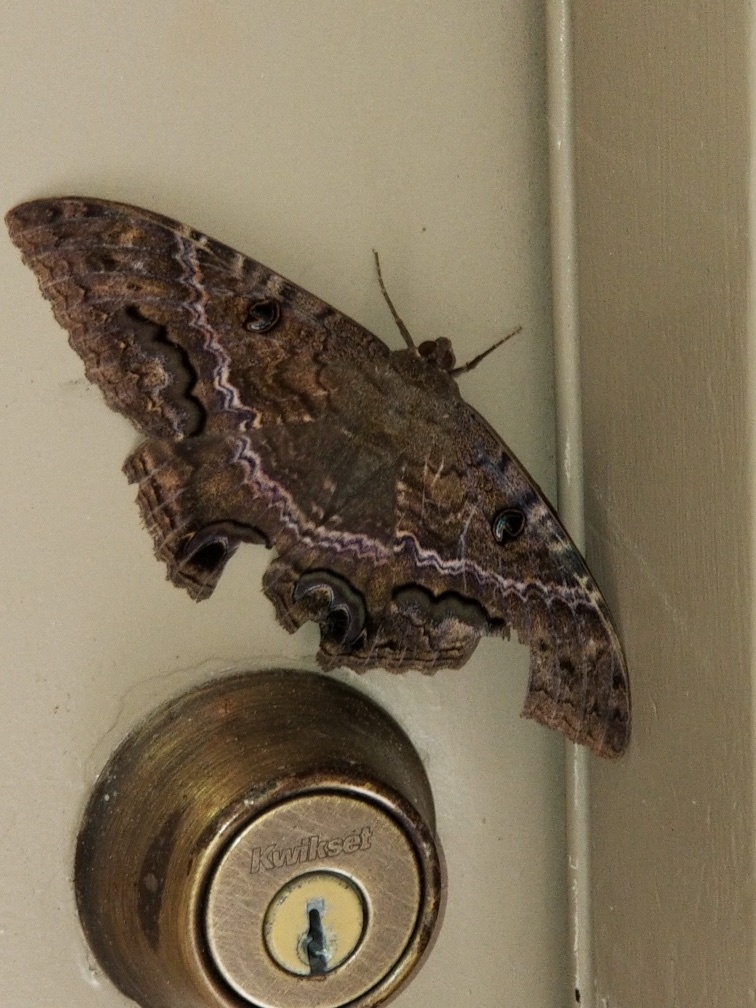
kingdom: Animalia
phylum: Arthropoda
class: Insecta
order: Lepidoptera
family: Erebidae
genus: Ascalapha
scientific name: Ascalapha odorata
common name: Black witch
